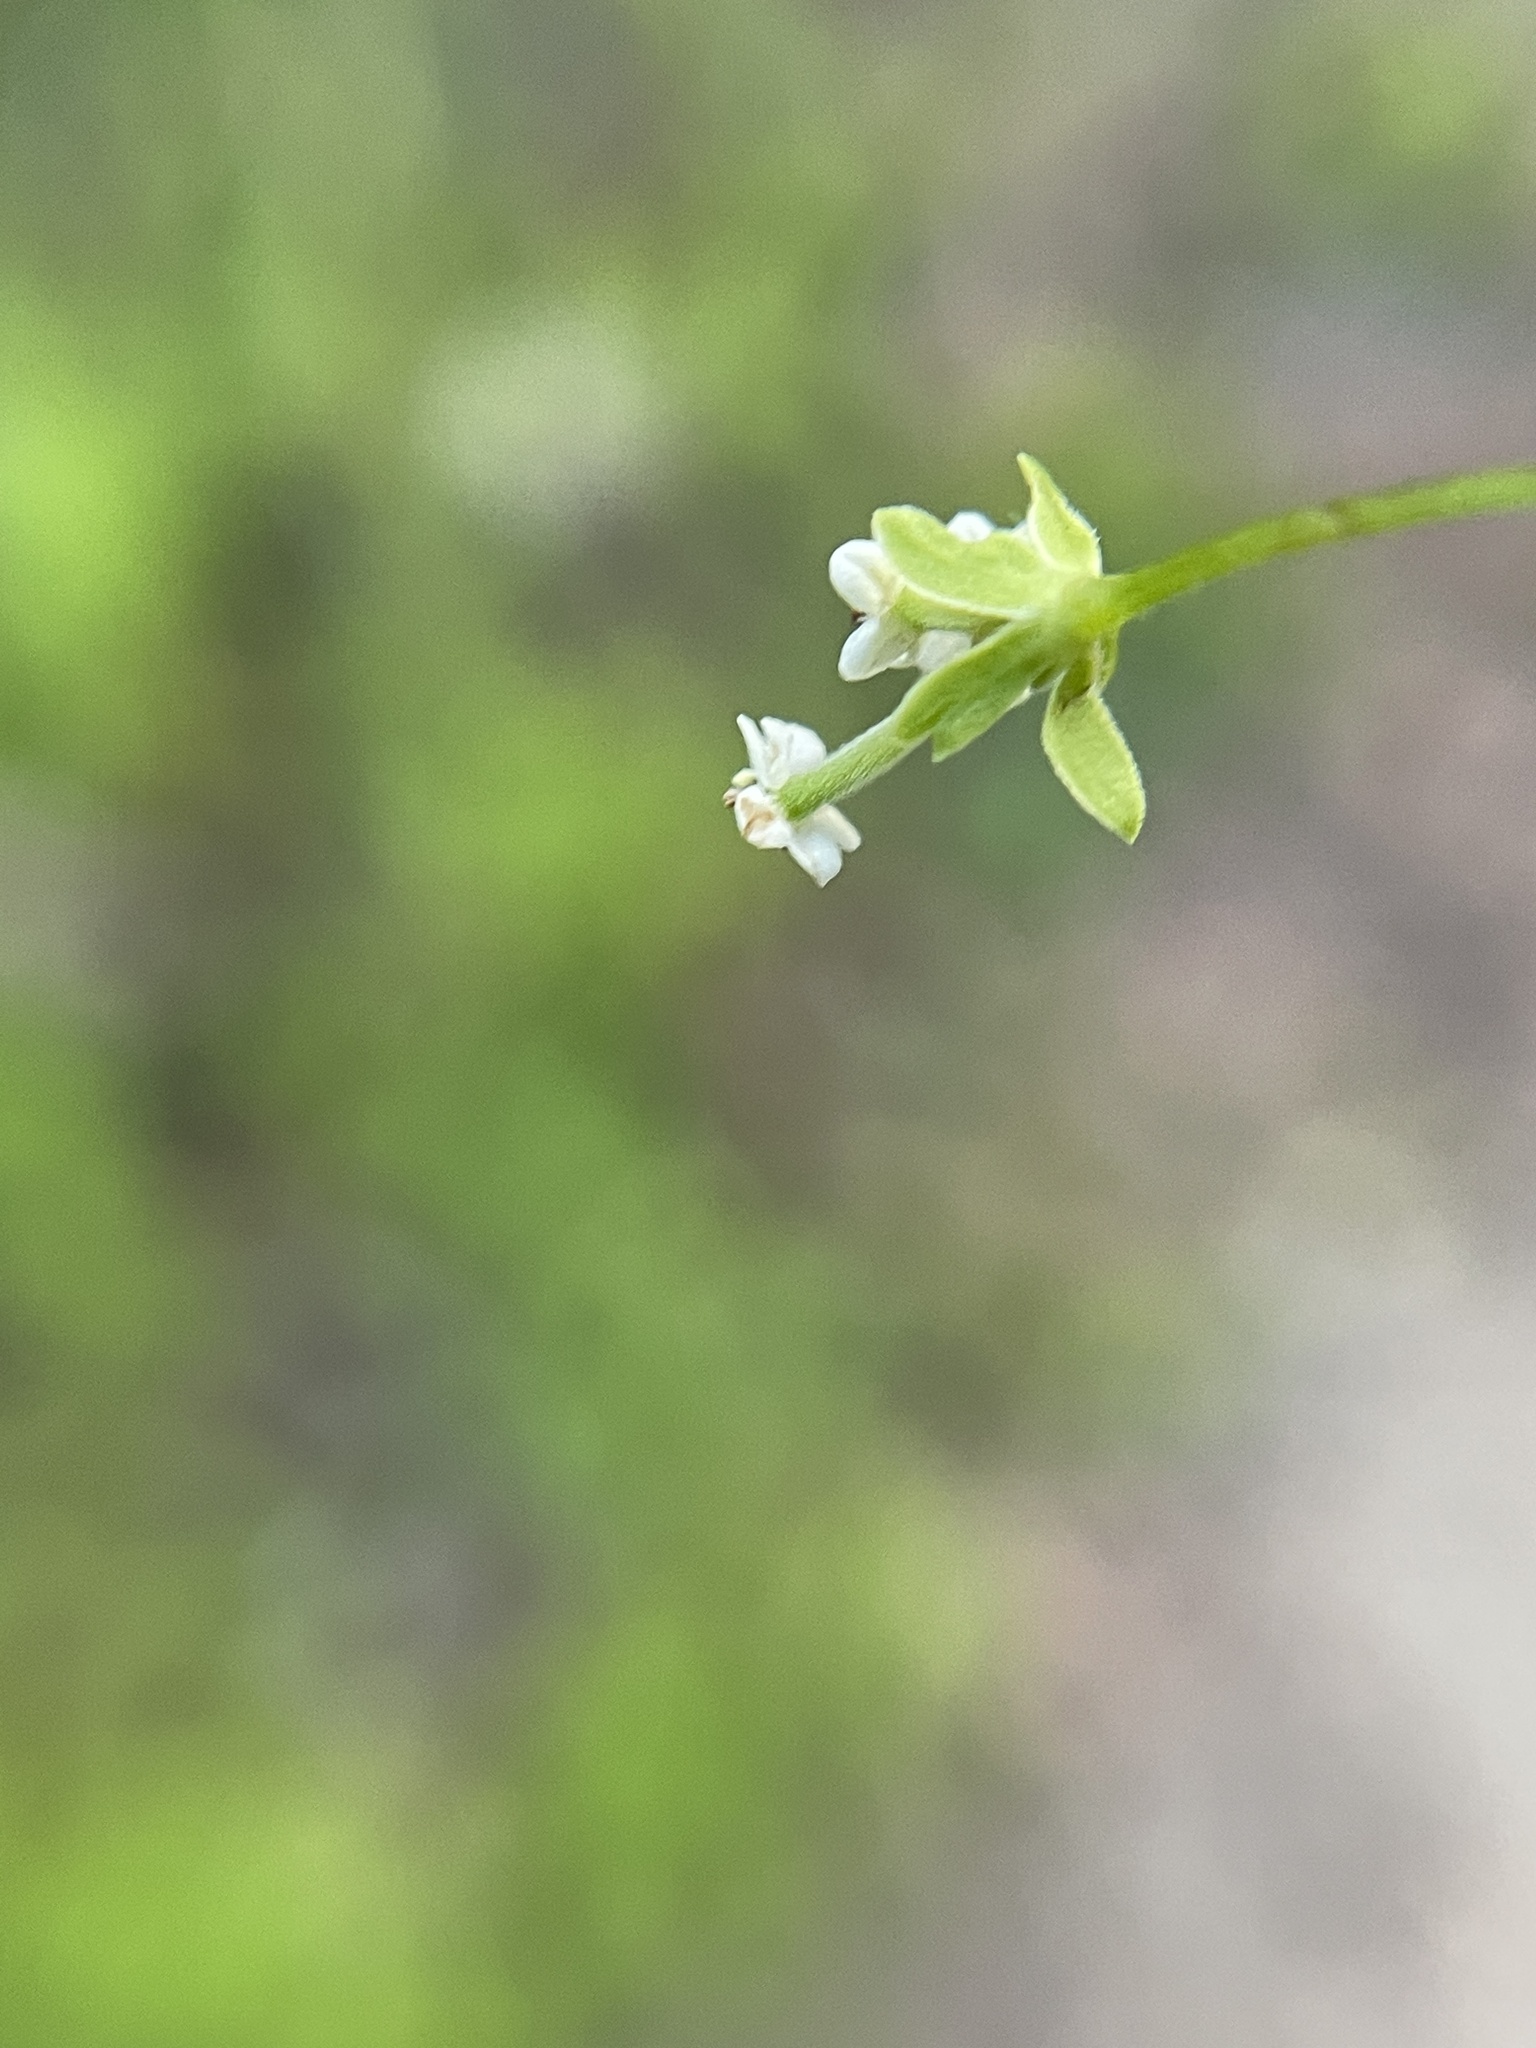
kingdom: Plantae
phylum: Tracheophyta
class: Magnoliopsida
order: Apiales
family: Apiaceae
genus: Chaerophyllum
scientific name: Chaerophyllum tainturieri
